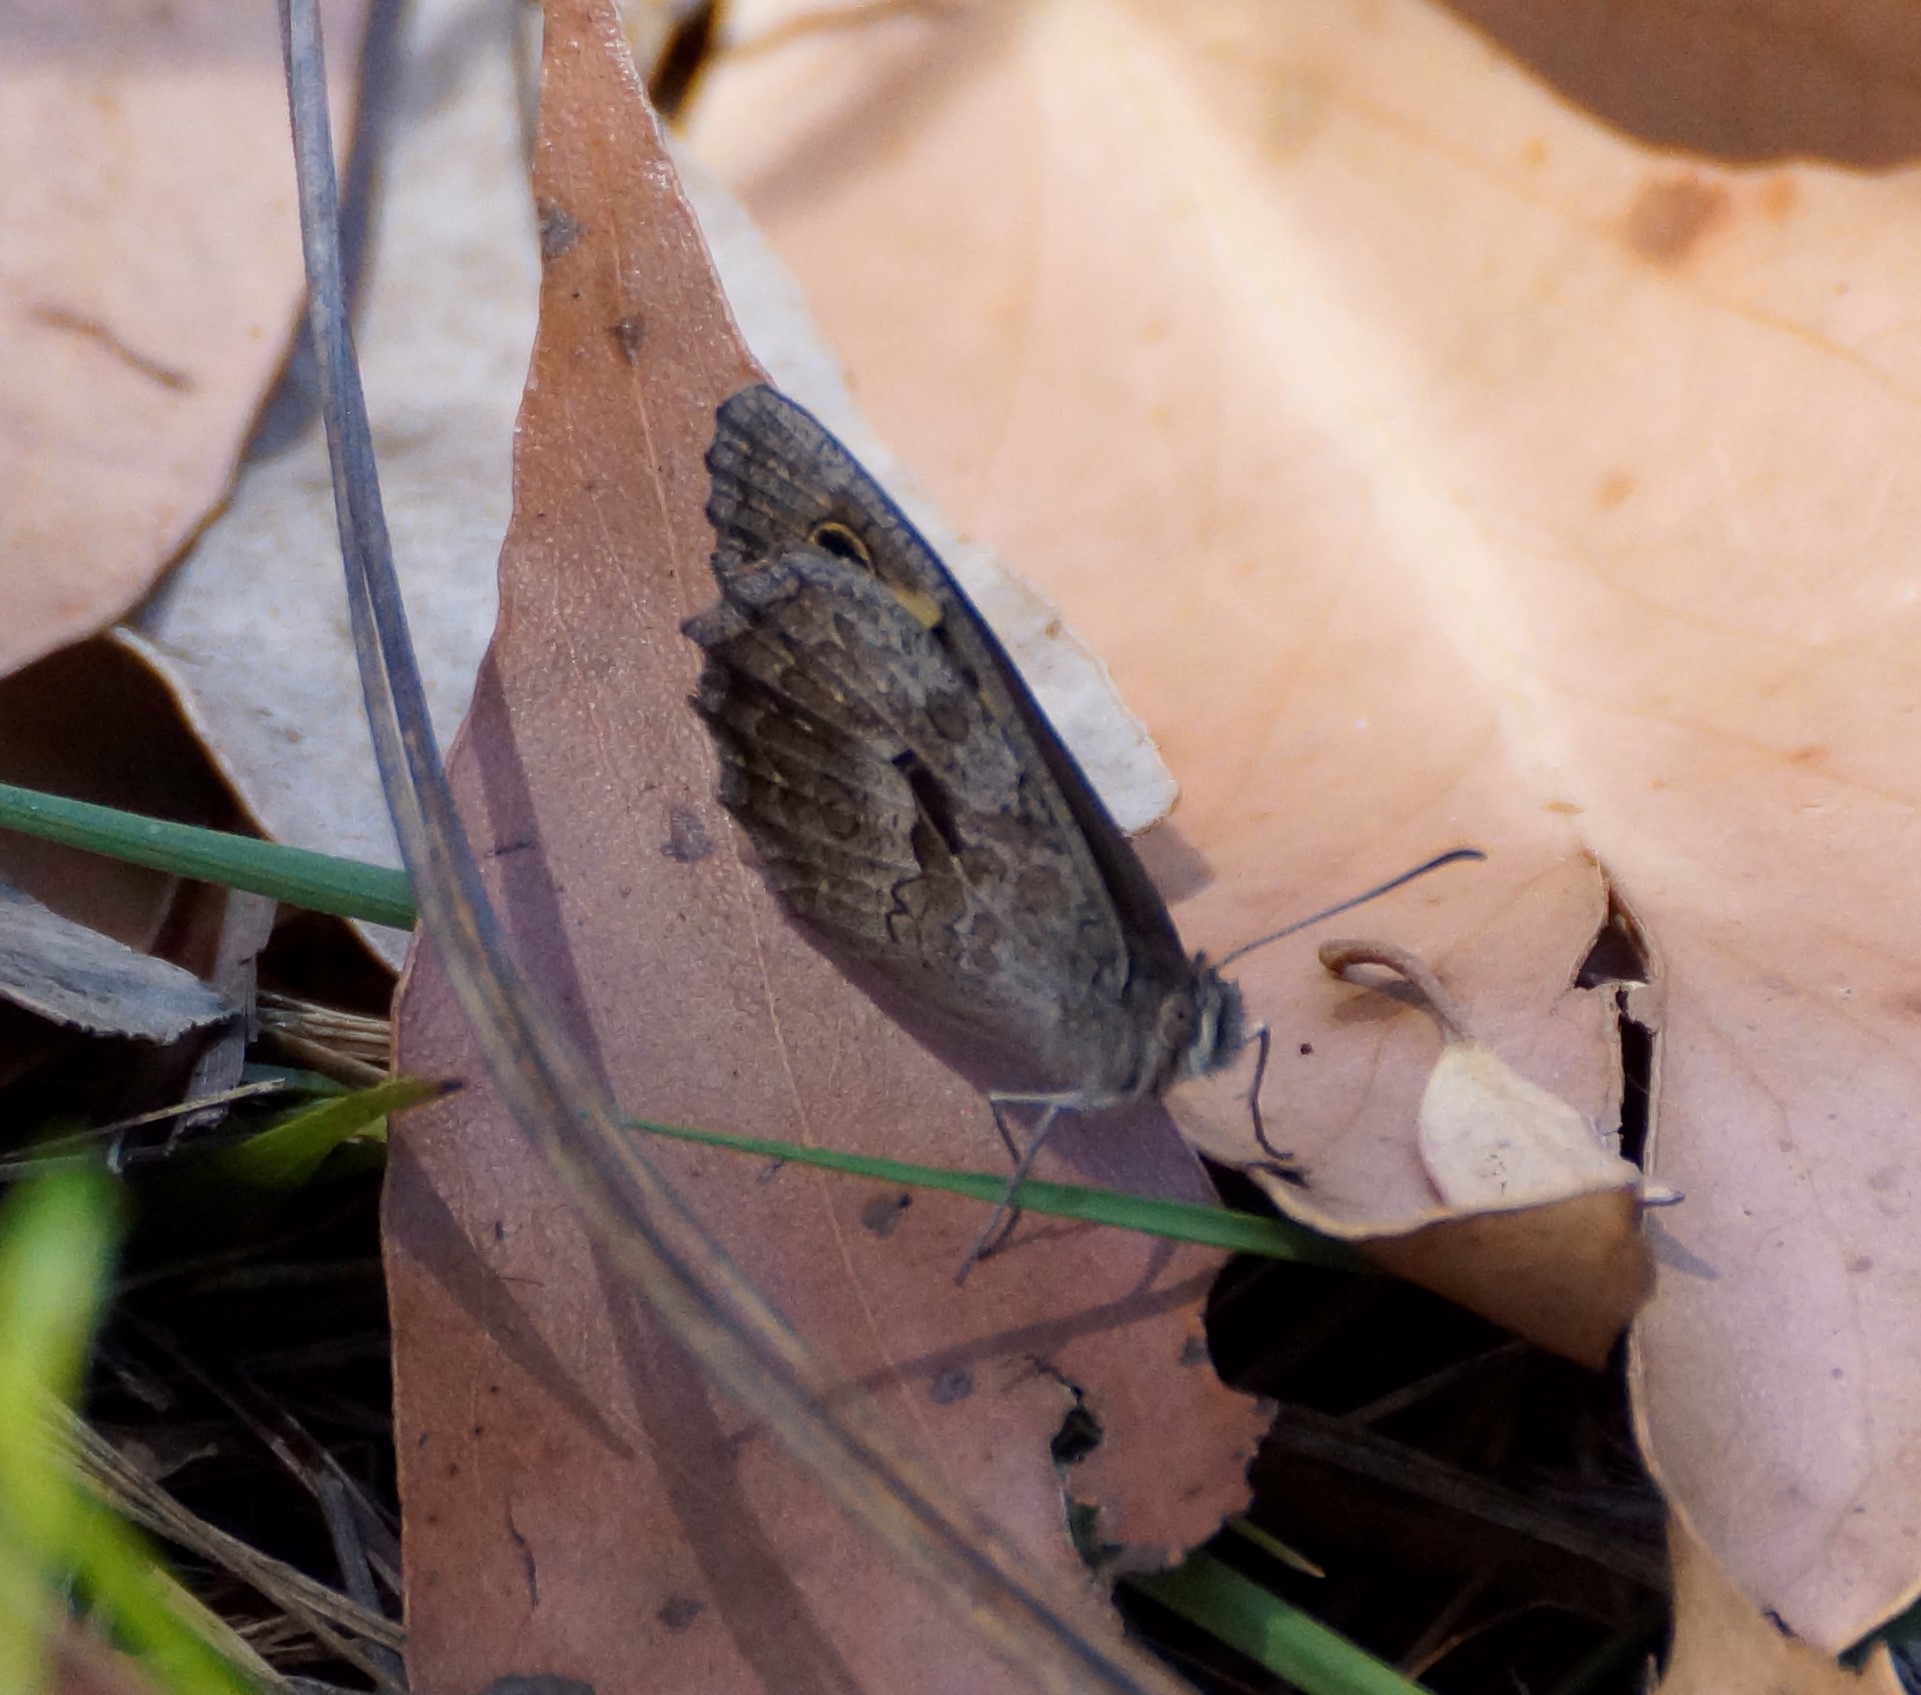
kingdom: Animalia
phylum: Arthropoda
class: Insecta
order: Lepidoptera
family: Nymphalidae
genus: Geitoneura
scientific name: Geitoneura klugii
